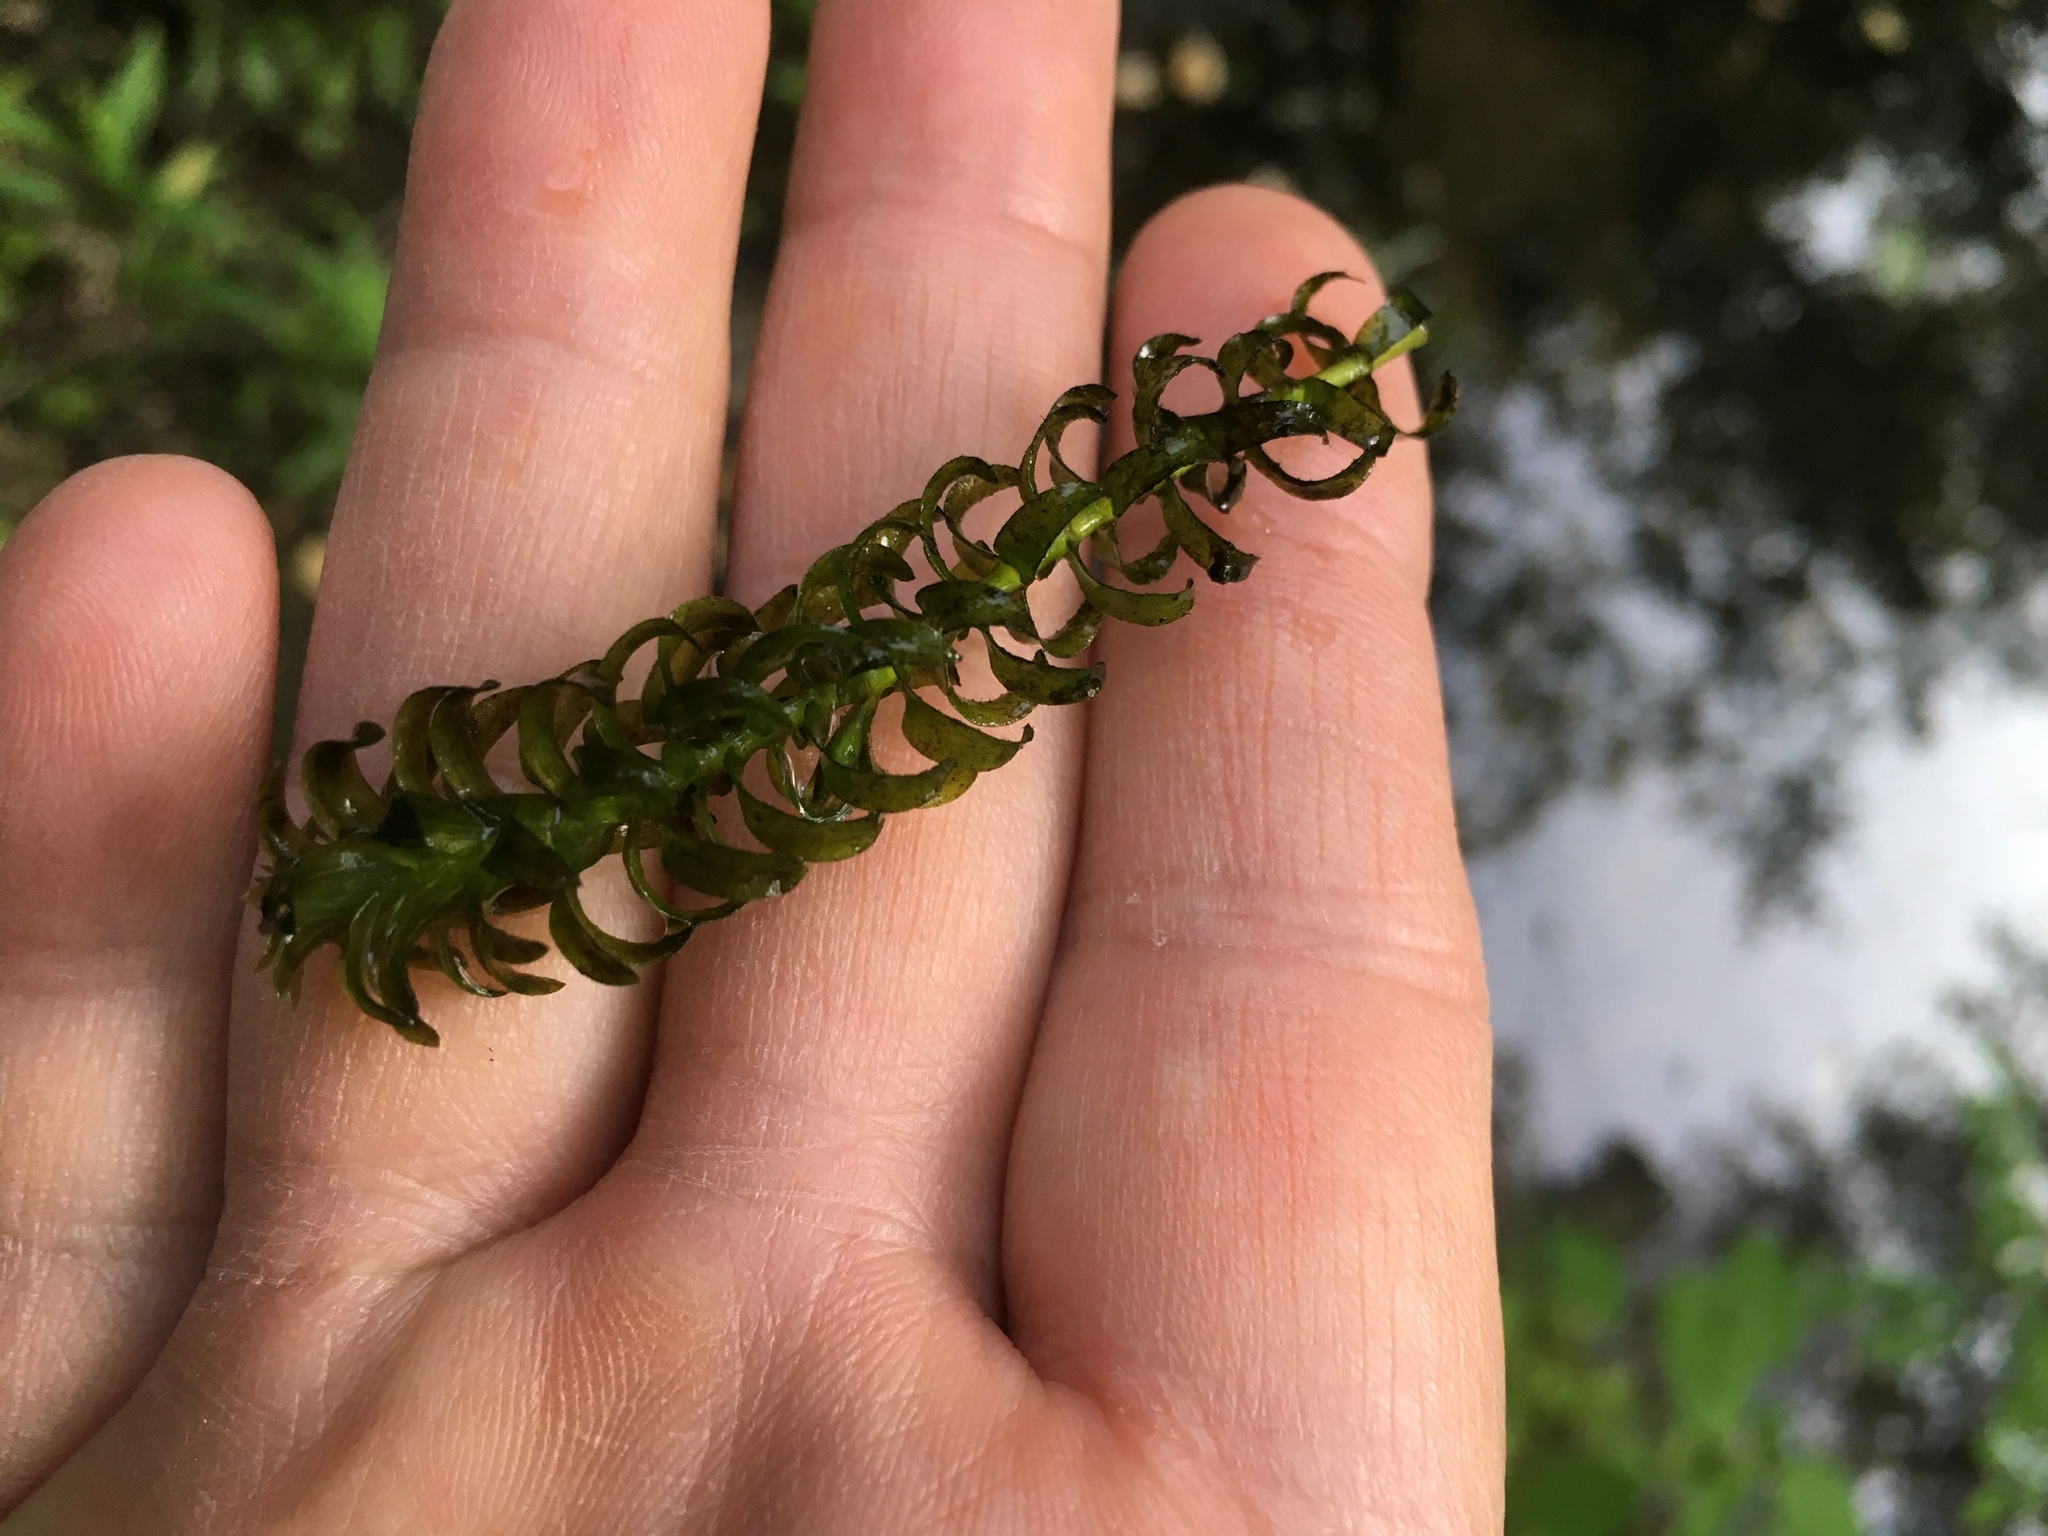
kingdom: Plantae
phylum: Tracheophyta
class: Liliopsida
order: Alismatales
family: Hydrocharitaceae
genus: Elodea
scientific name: Elodea canadensis
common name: Canadian waterweed
